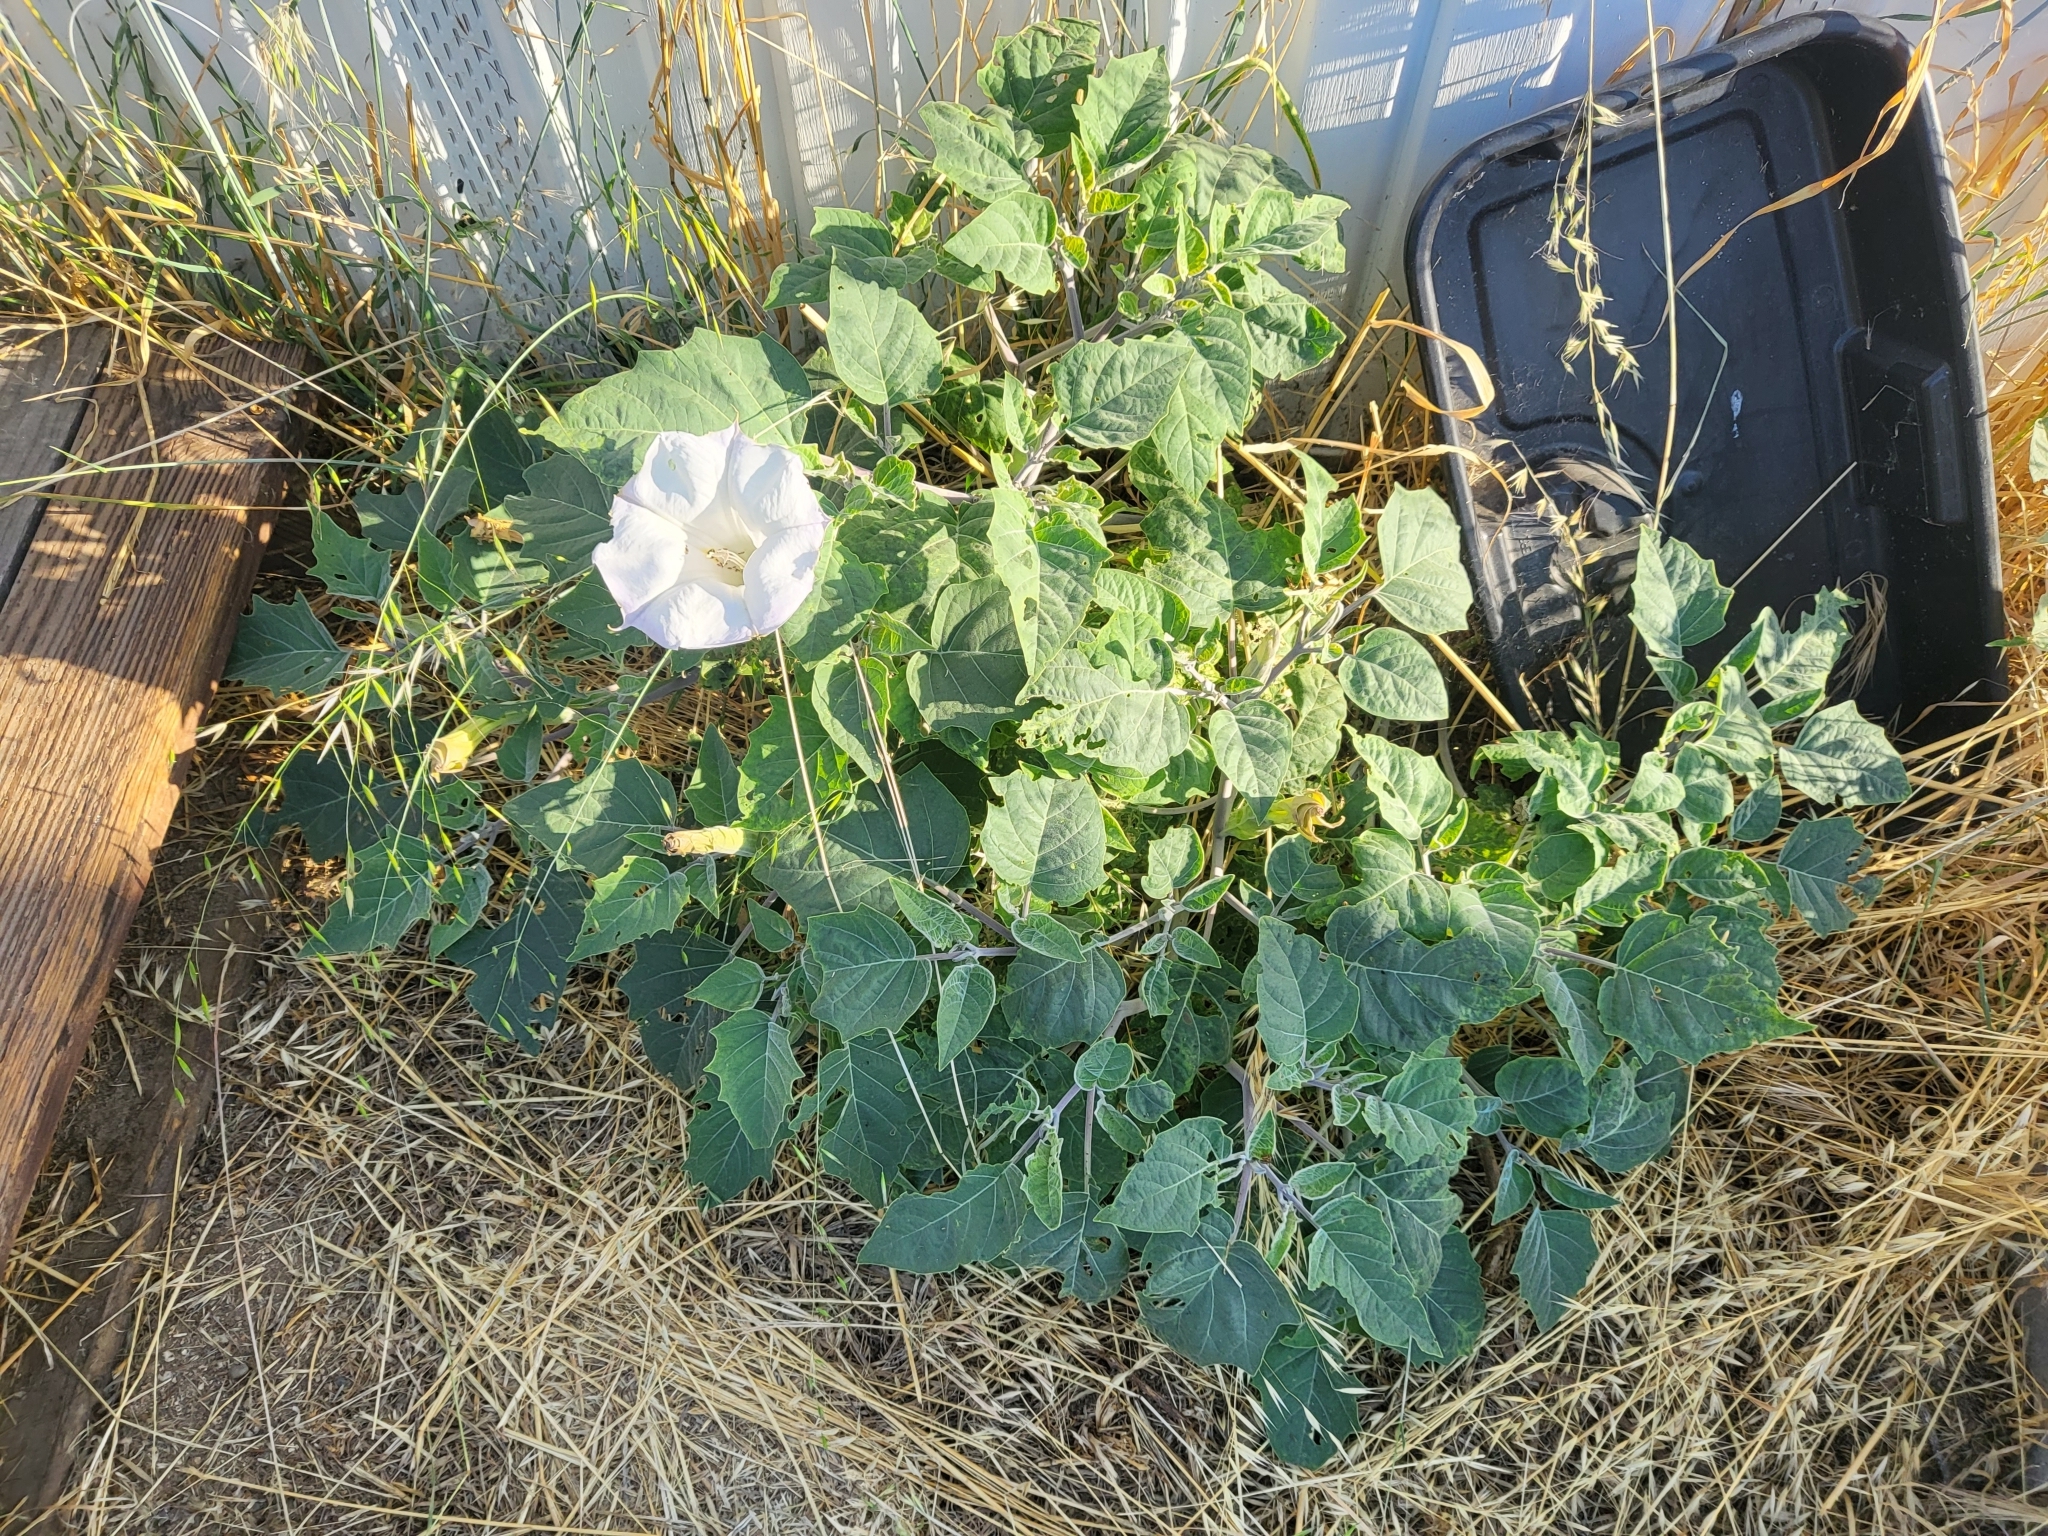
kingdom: Plantae
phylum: Tracheophyta
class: Magnoliopsida
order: Solanales
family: Solanaceae
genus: Datura
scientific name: Datura wrightii
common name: Sacred thorn-apple
